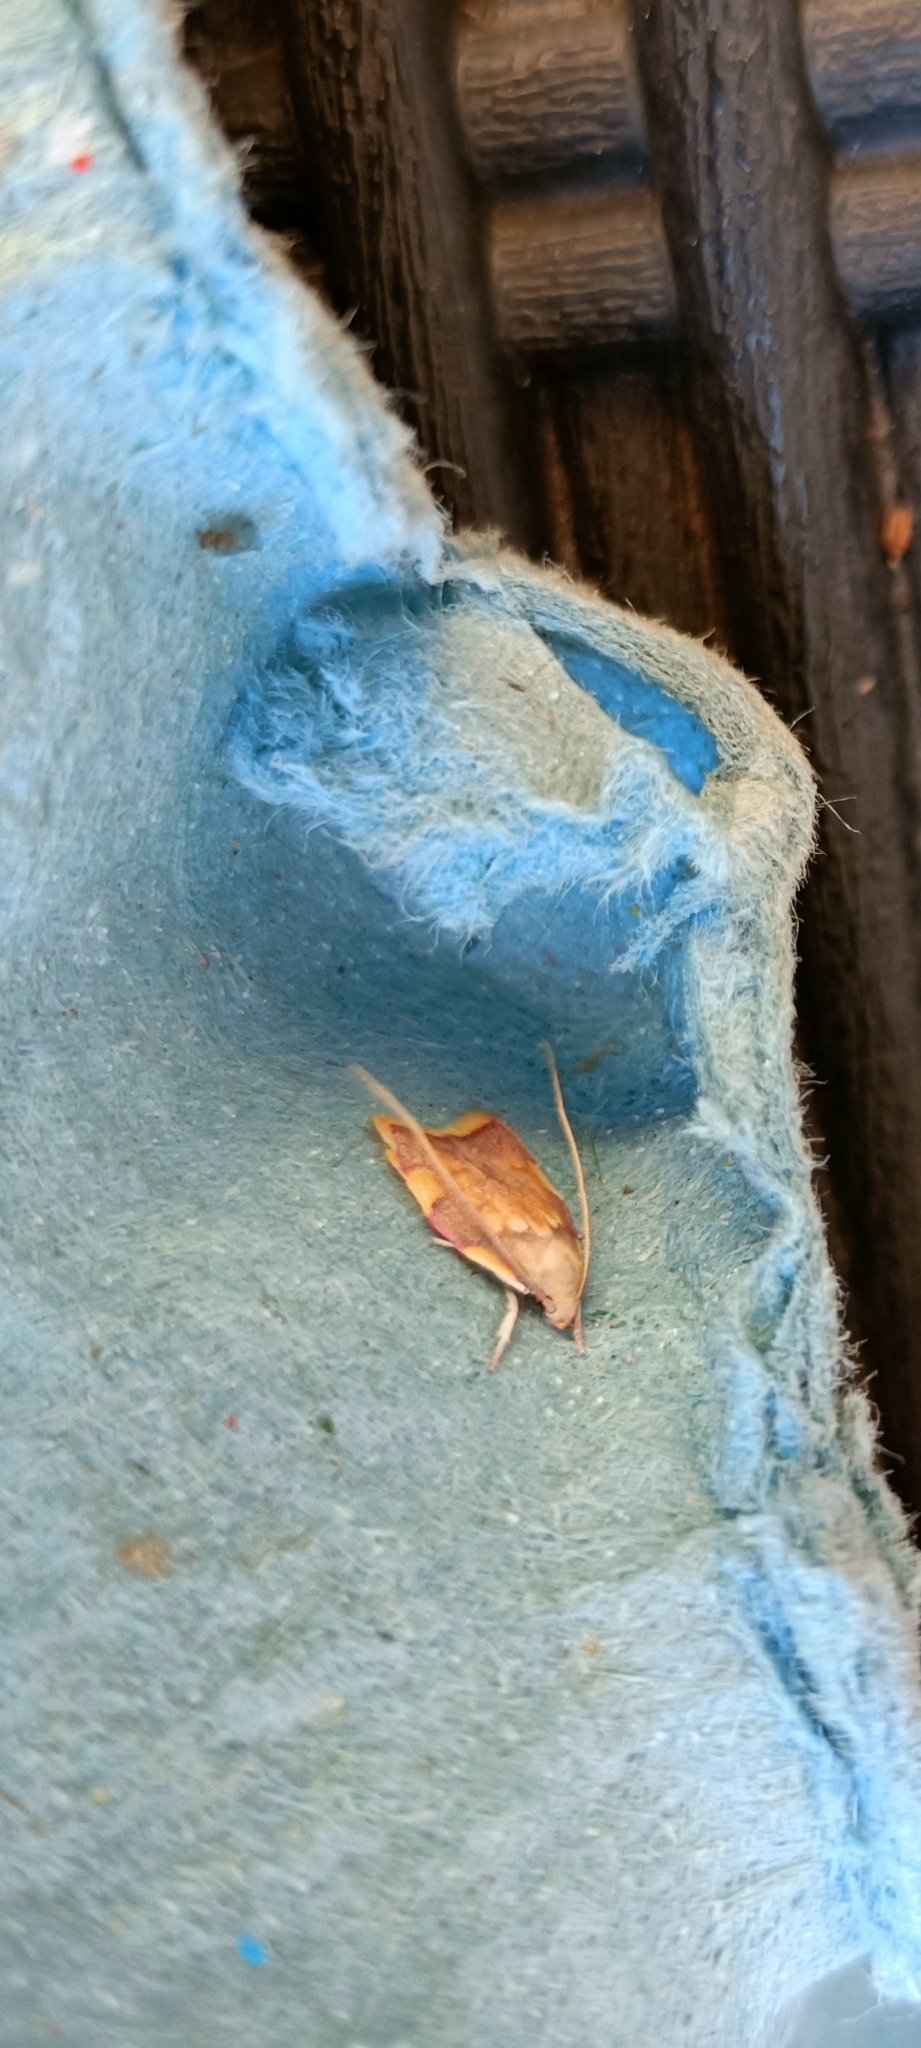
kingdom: Animalia
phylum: Arthropoda
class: Insecta
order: Lepidoptera
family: Peleopodidae
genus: Carcina
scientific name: Carcina quercana
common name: Moth
